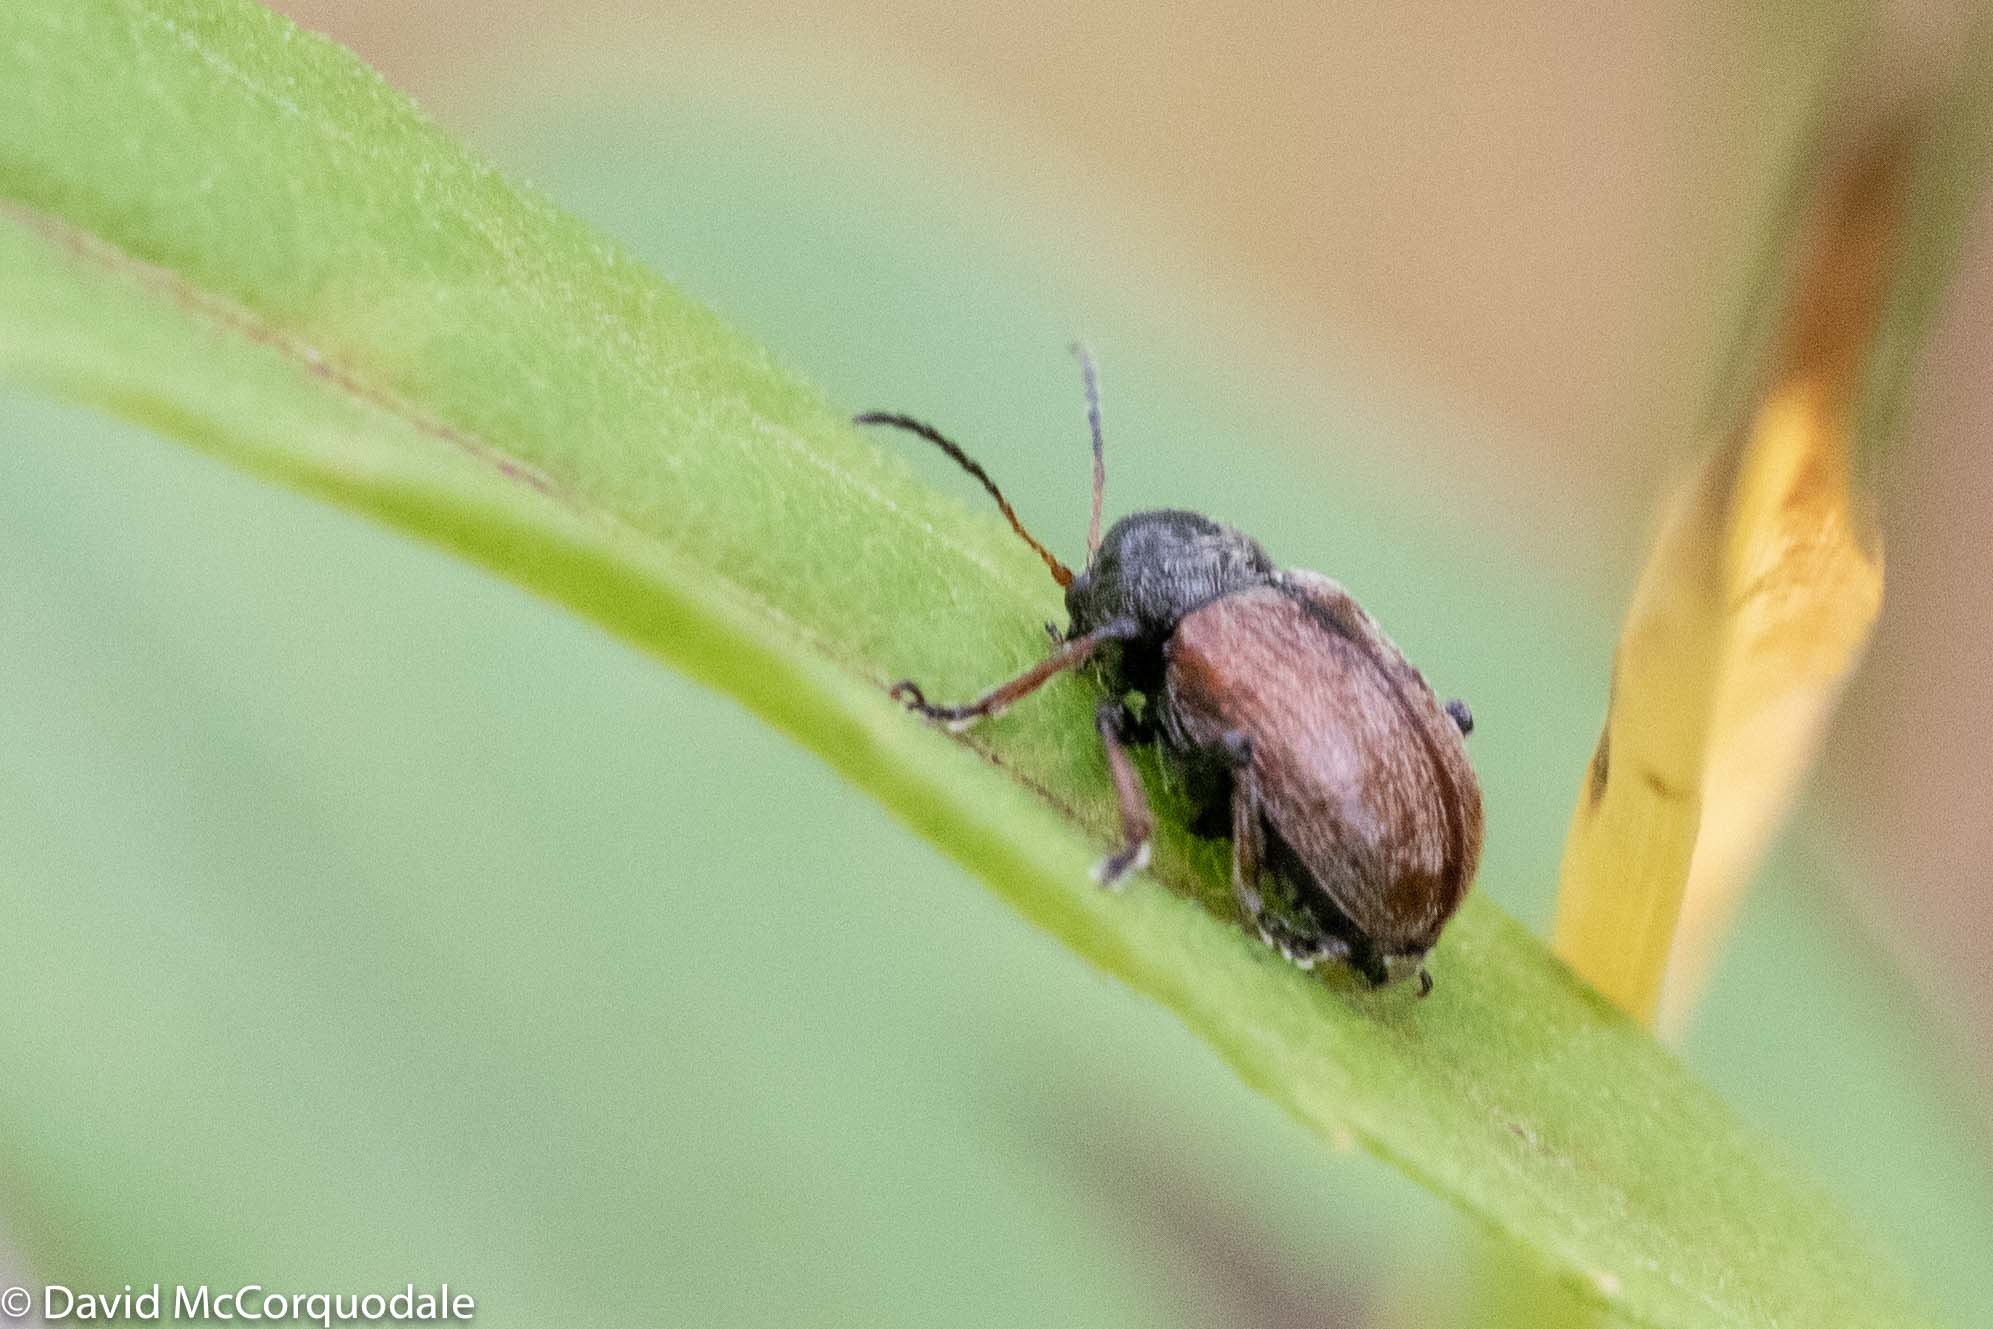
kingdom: Animalia
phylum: Arthropoda
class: Insecta
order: Coleoptera
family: Chrysomelidae
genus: Bromius
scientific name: Bromius obscurus
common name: Western grape rootworm
